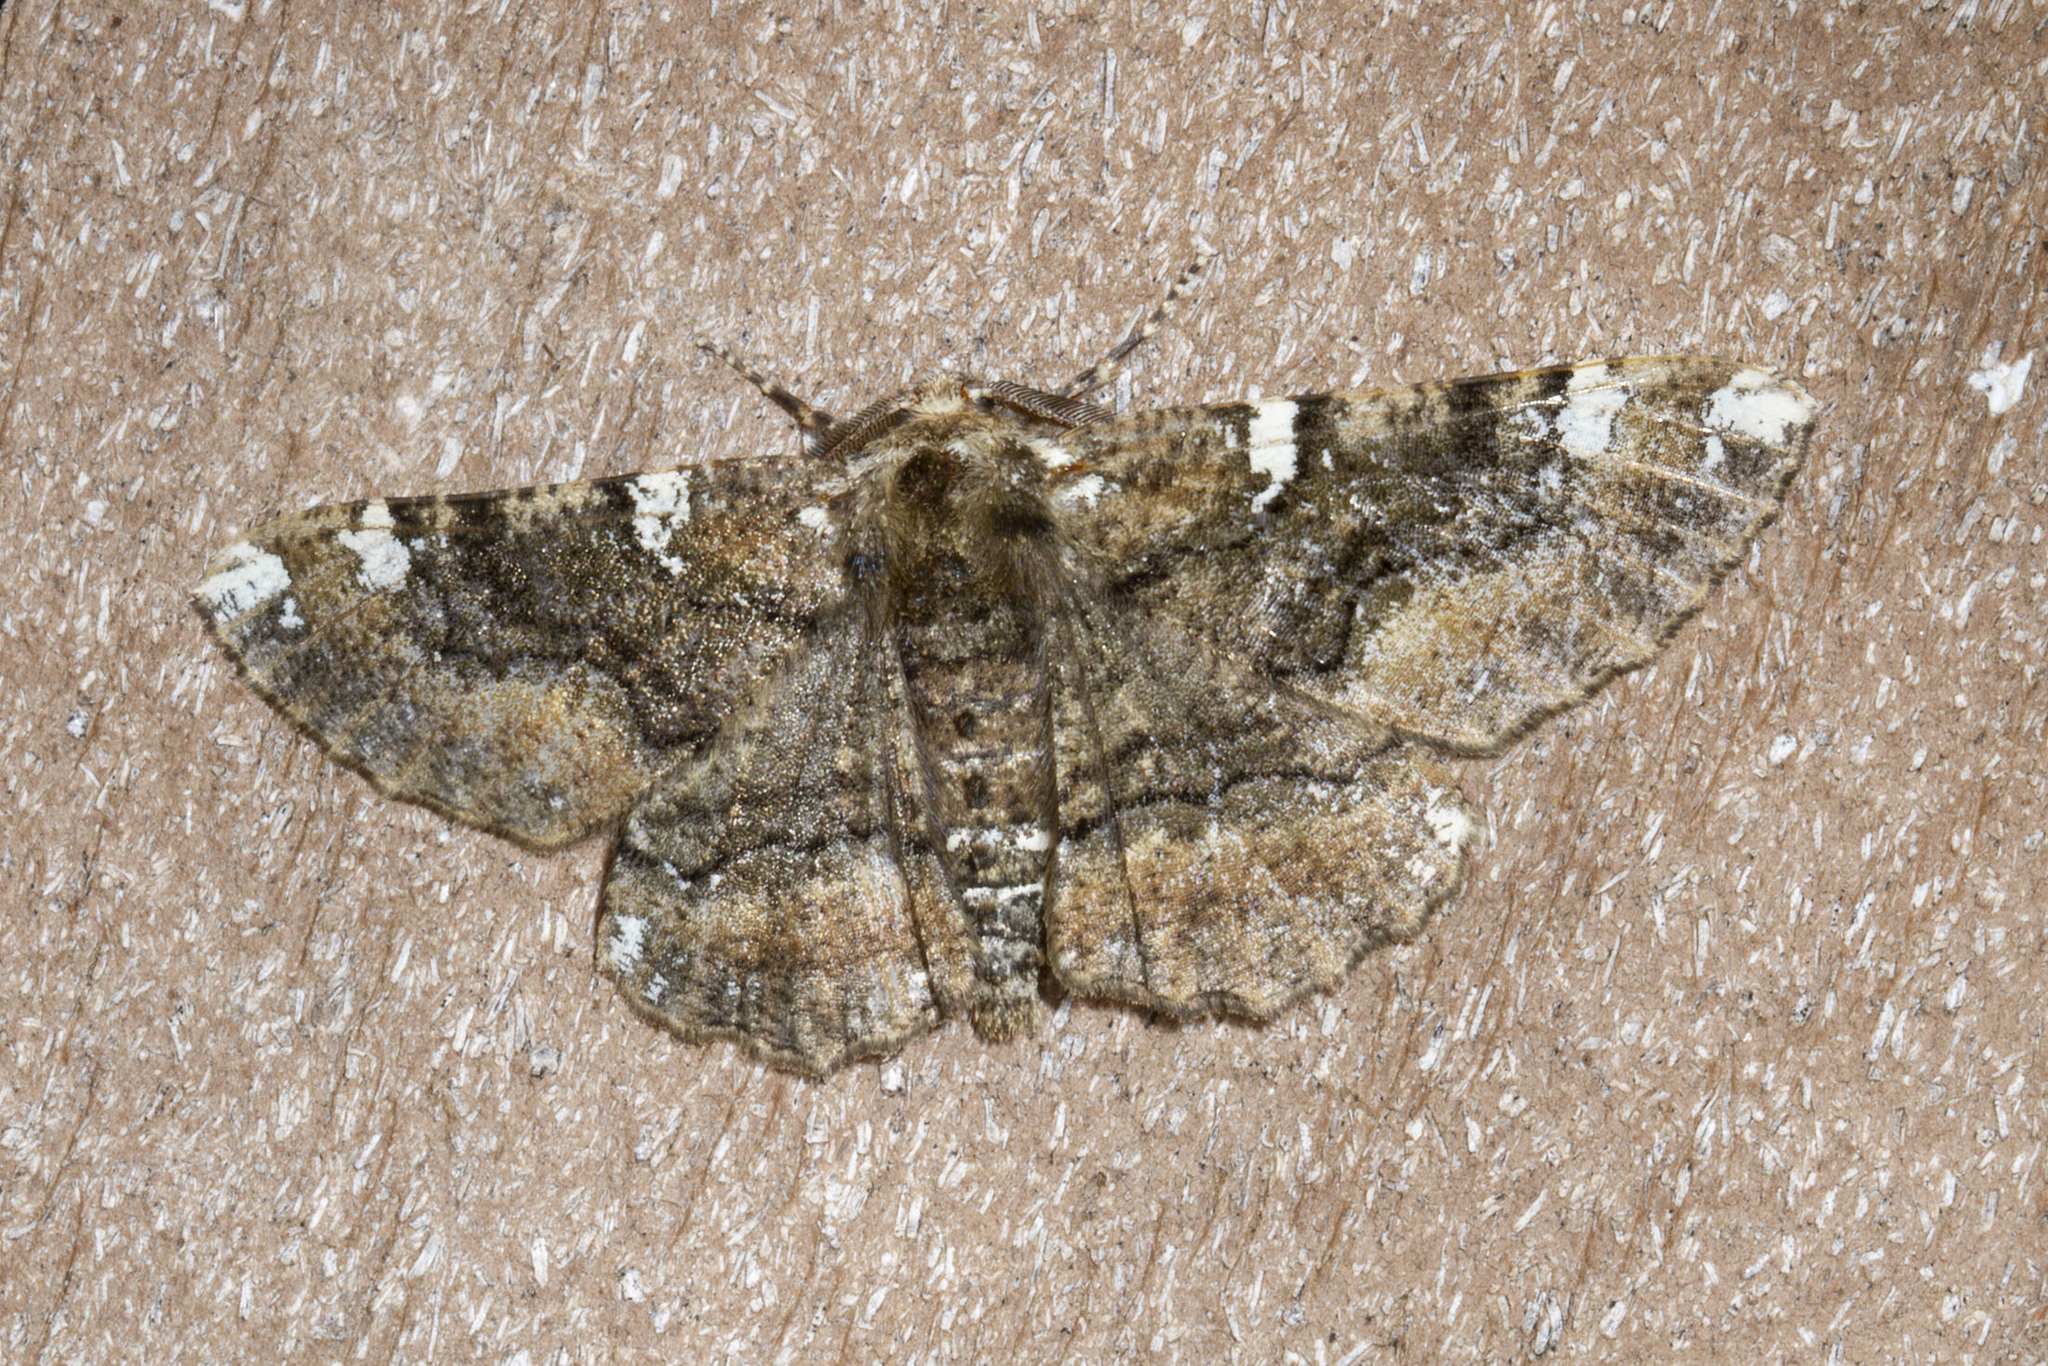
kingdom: Animalia
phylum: Arthropoda
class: Insecta
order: Lepidoptera
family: Geometridae
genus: Phaeoura
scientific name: Phaeoura quernaria
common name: Oak beauty
